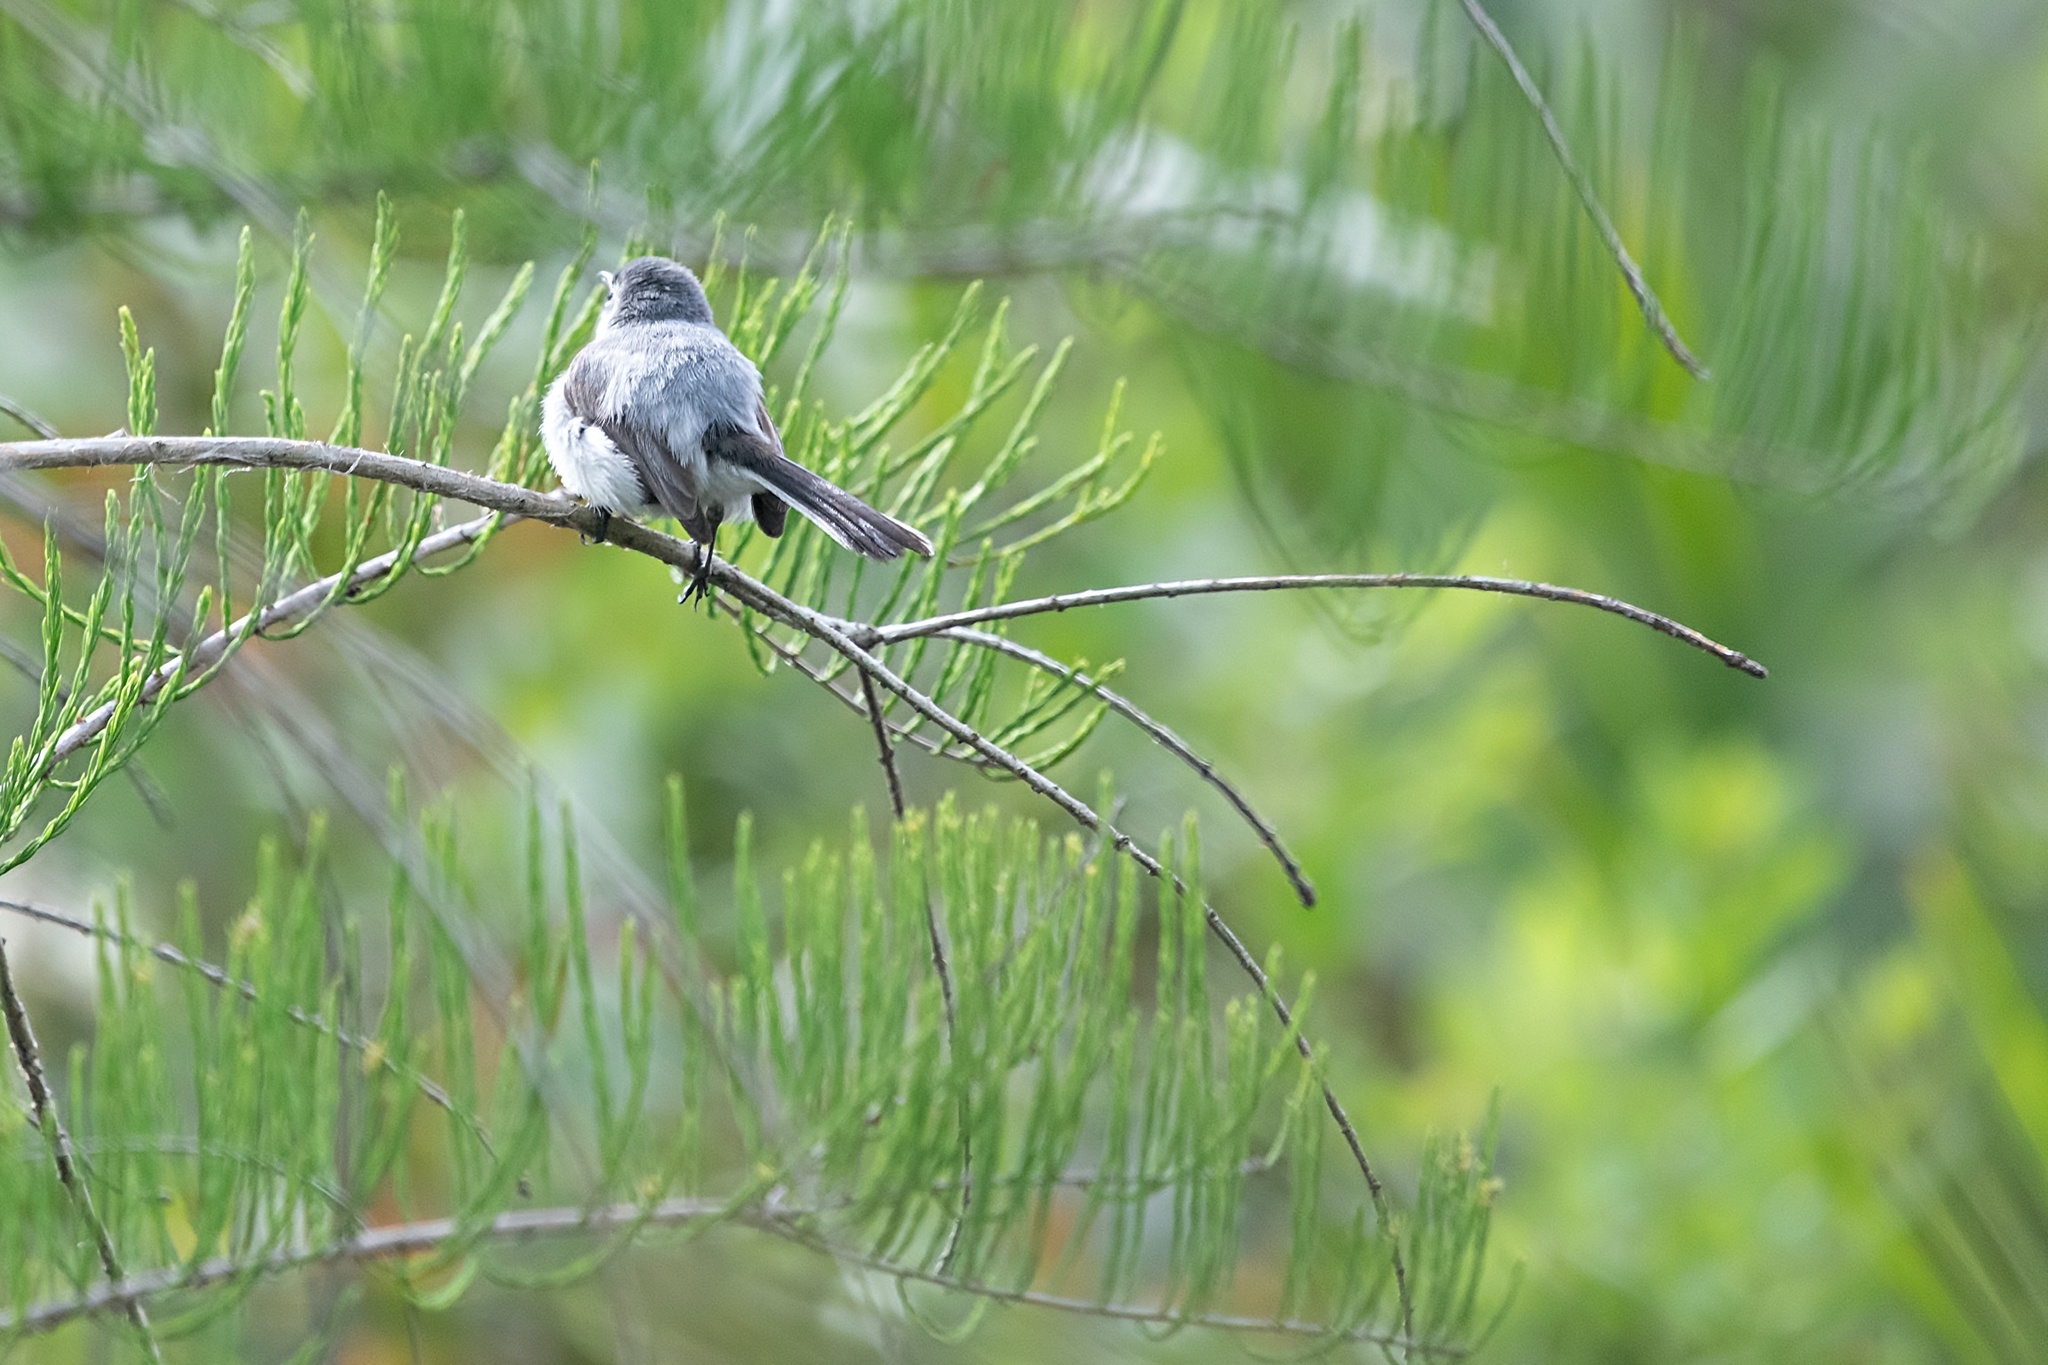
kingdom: Animalia
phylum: Chordata
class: Aves
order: Passeriformes
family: Polioptilidae
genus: Polioptila
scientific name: Polioptila caerulea
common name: Blue-gray gnatcatcher
